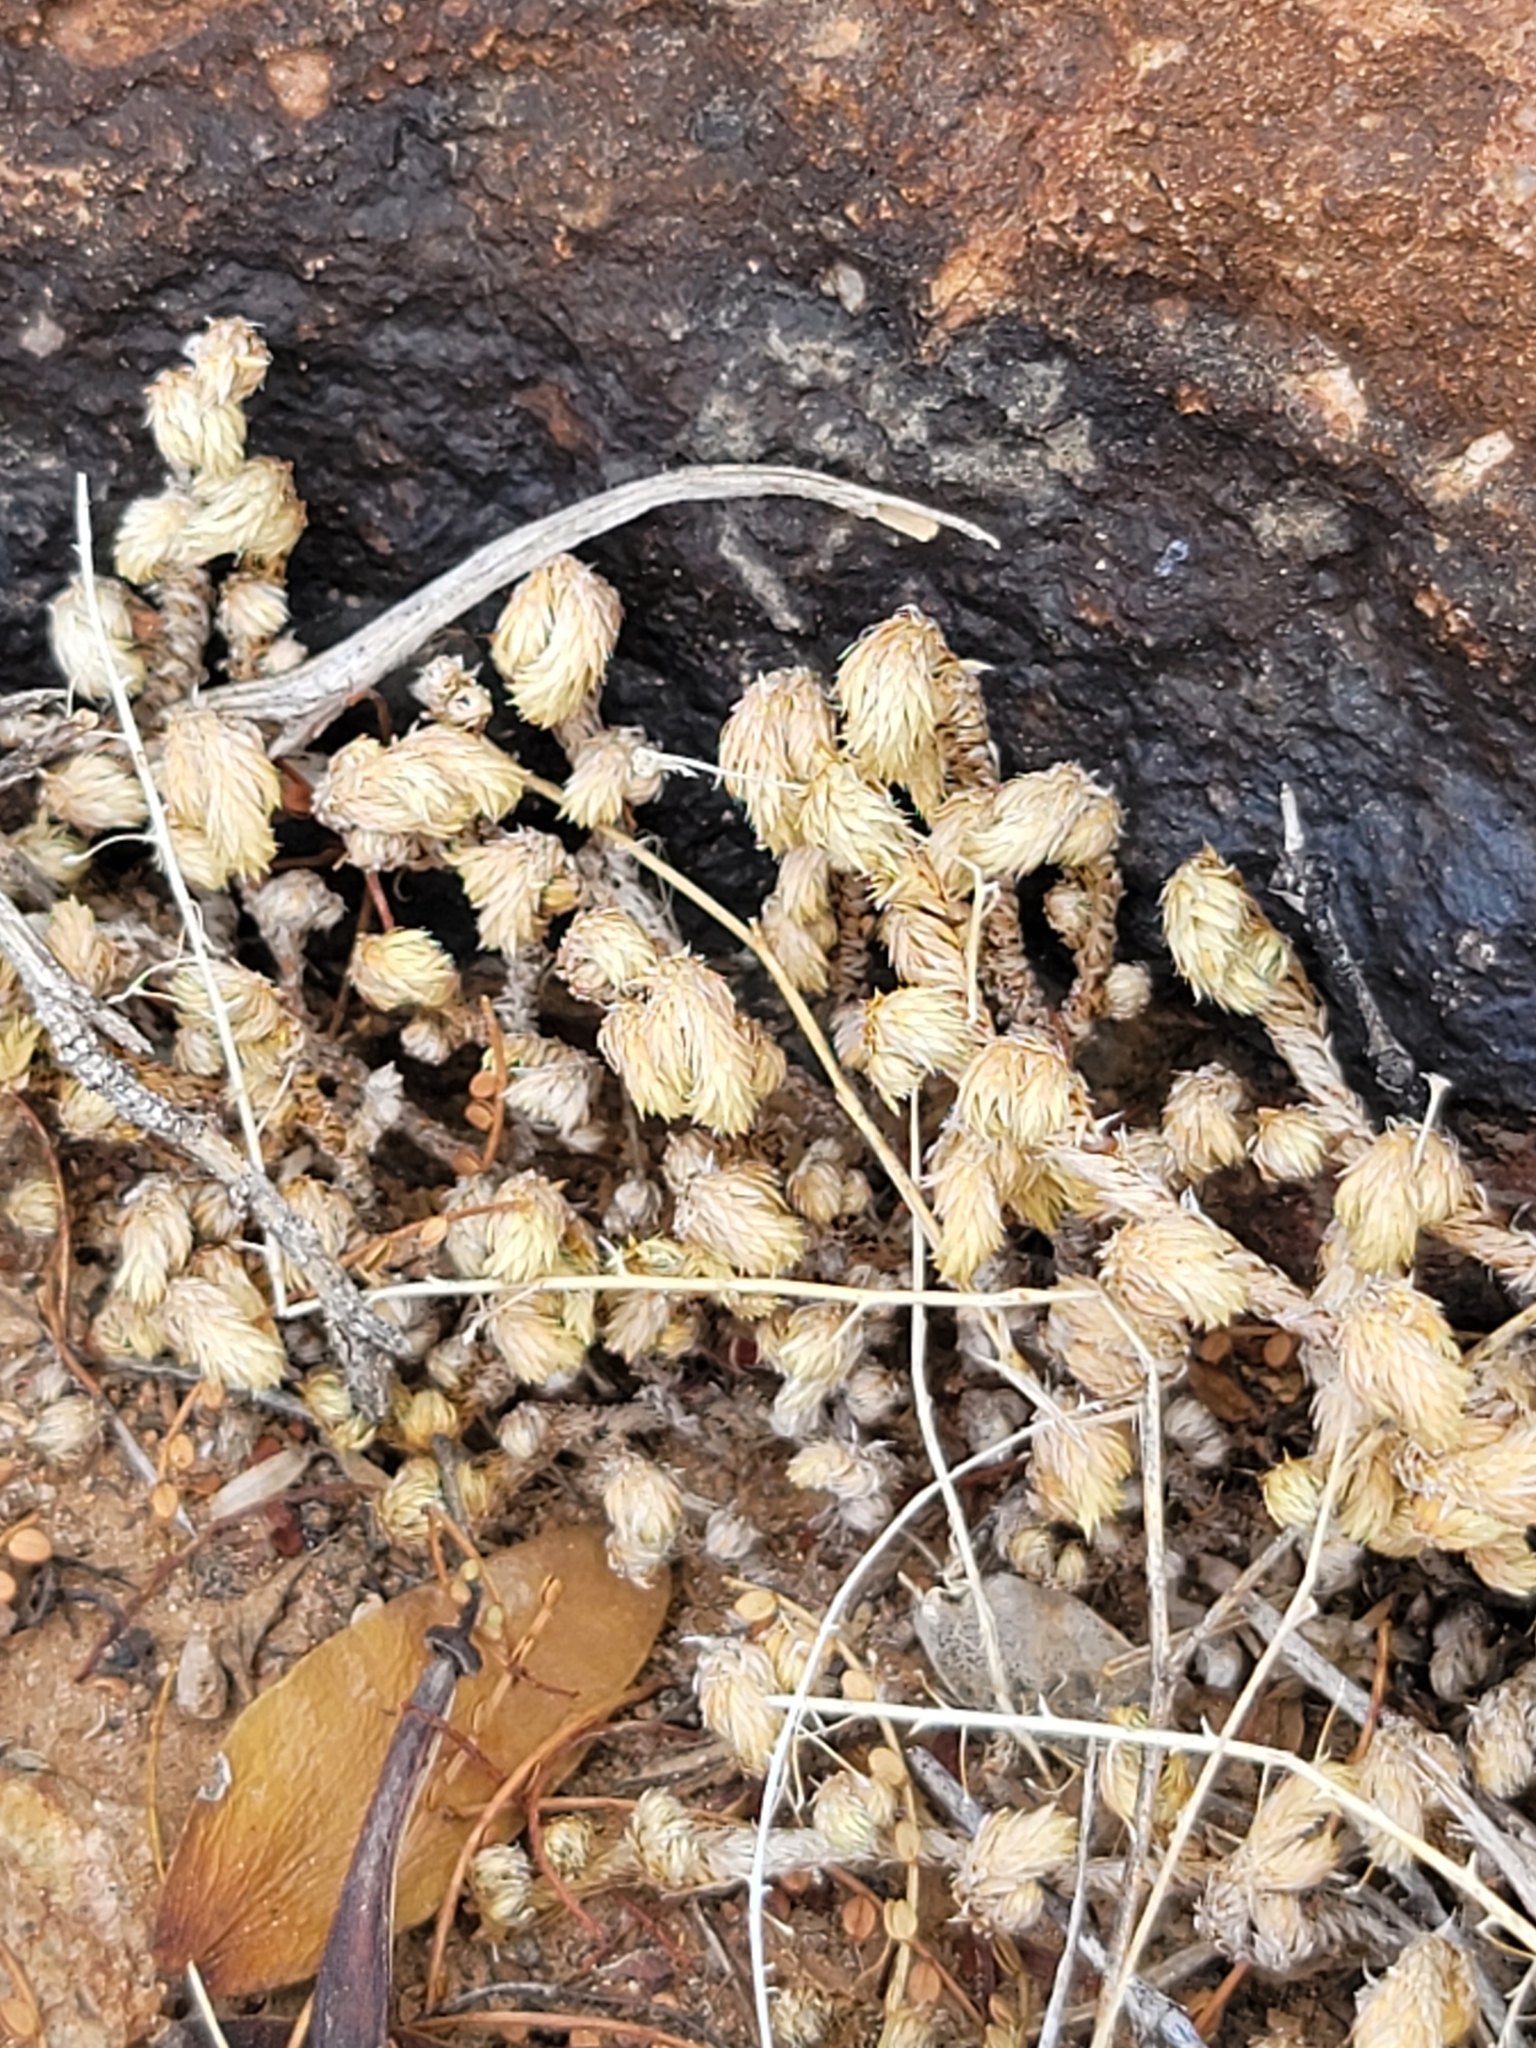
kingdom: Plantae
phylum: Tracheophyta
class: Lycopodiopsida
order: Selaginellales
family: Selaginellaceae
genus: Selaginella
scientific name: Selaginella arizonica
